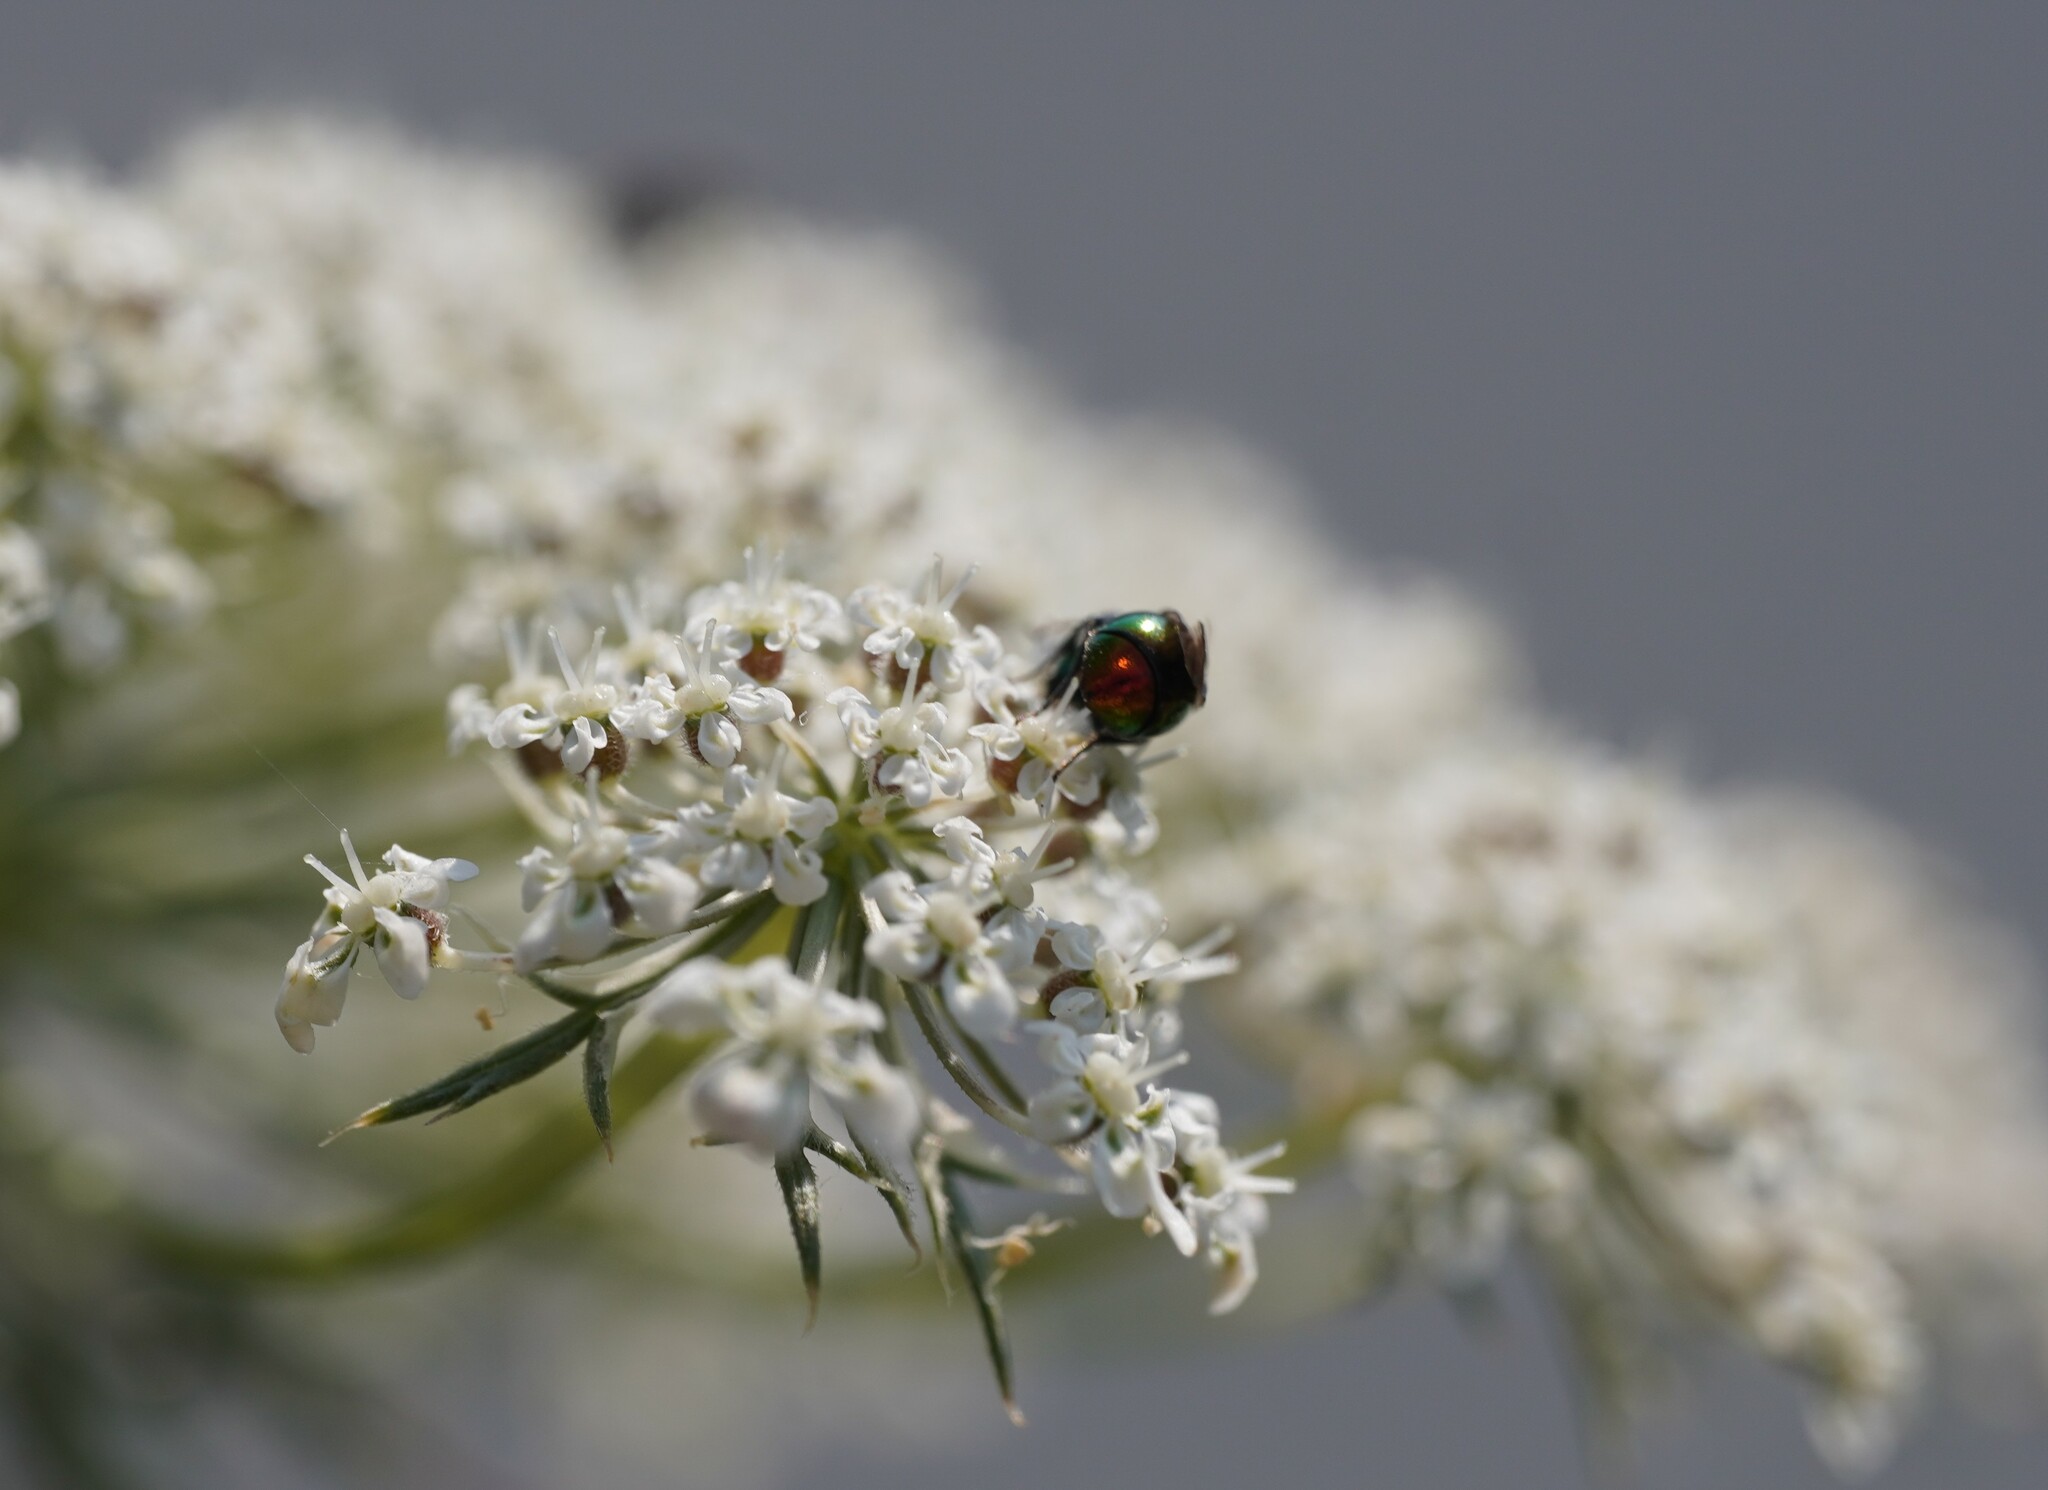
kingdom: Animalia
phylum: Arthropoda
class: Insecta
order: Hymenoptera
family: Chrysididae
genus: Omalus
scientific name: Omalus biaccinctus
